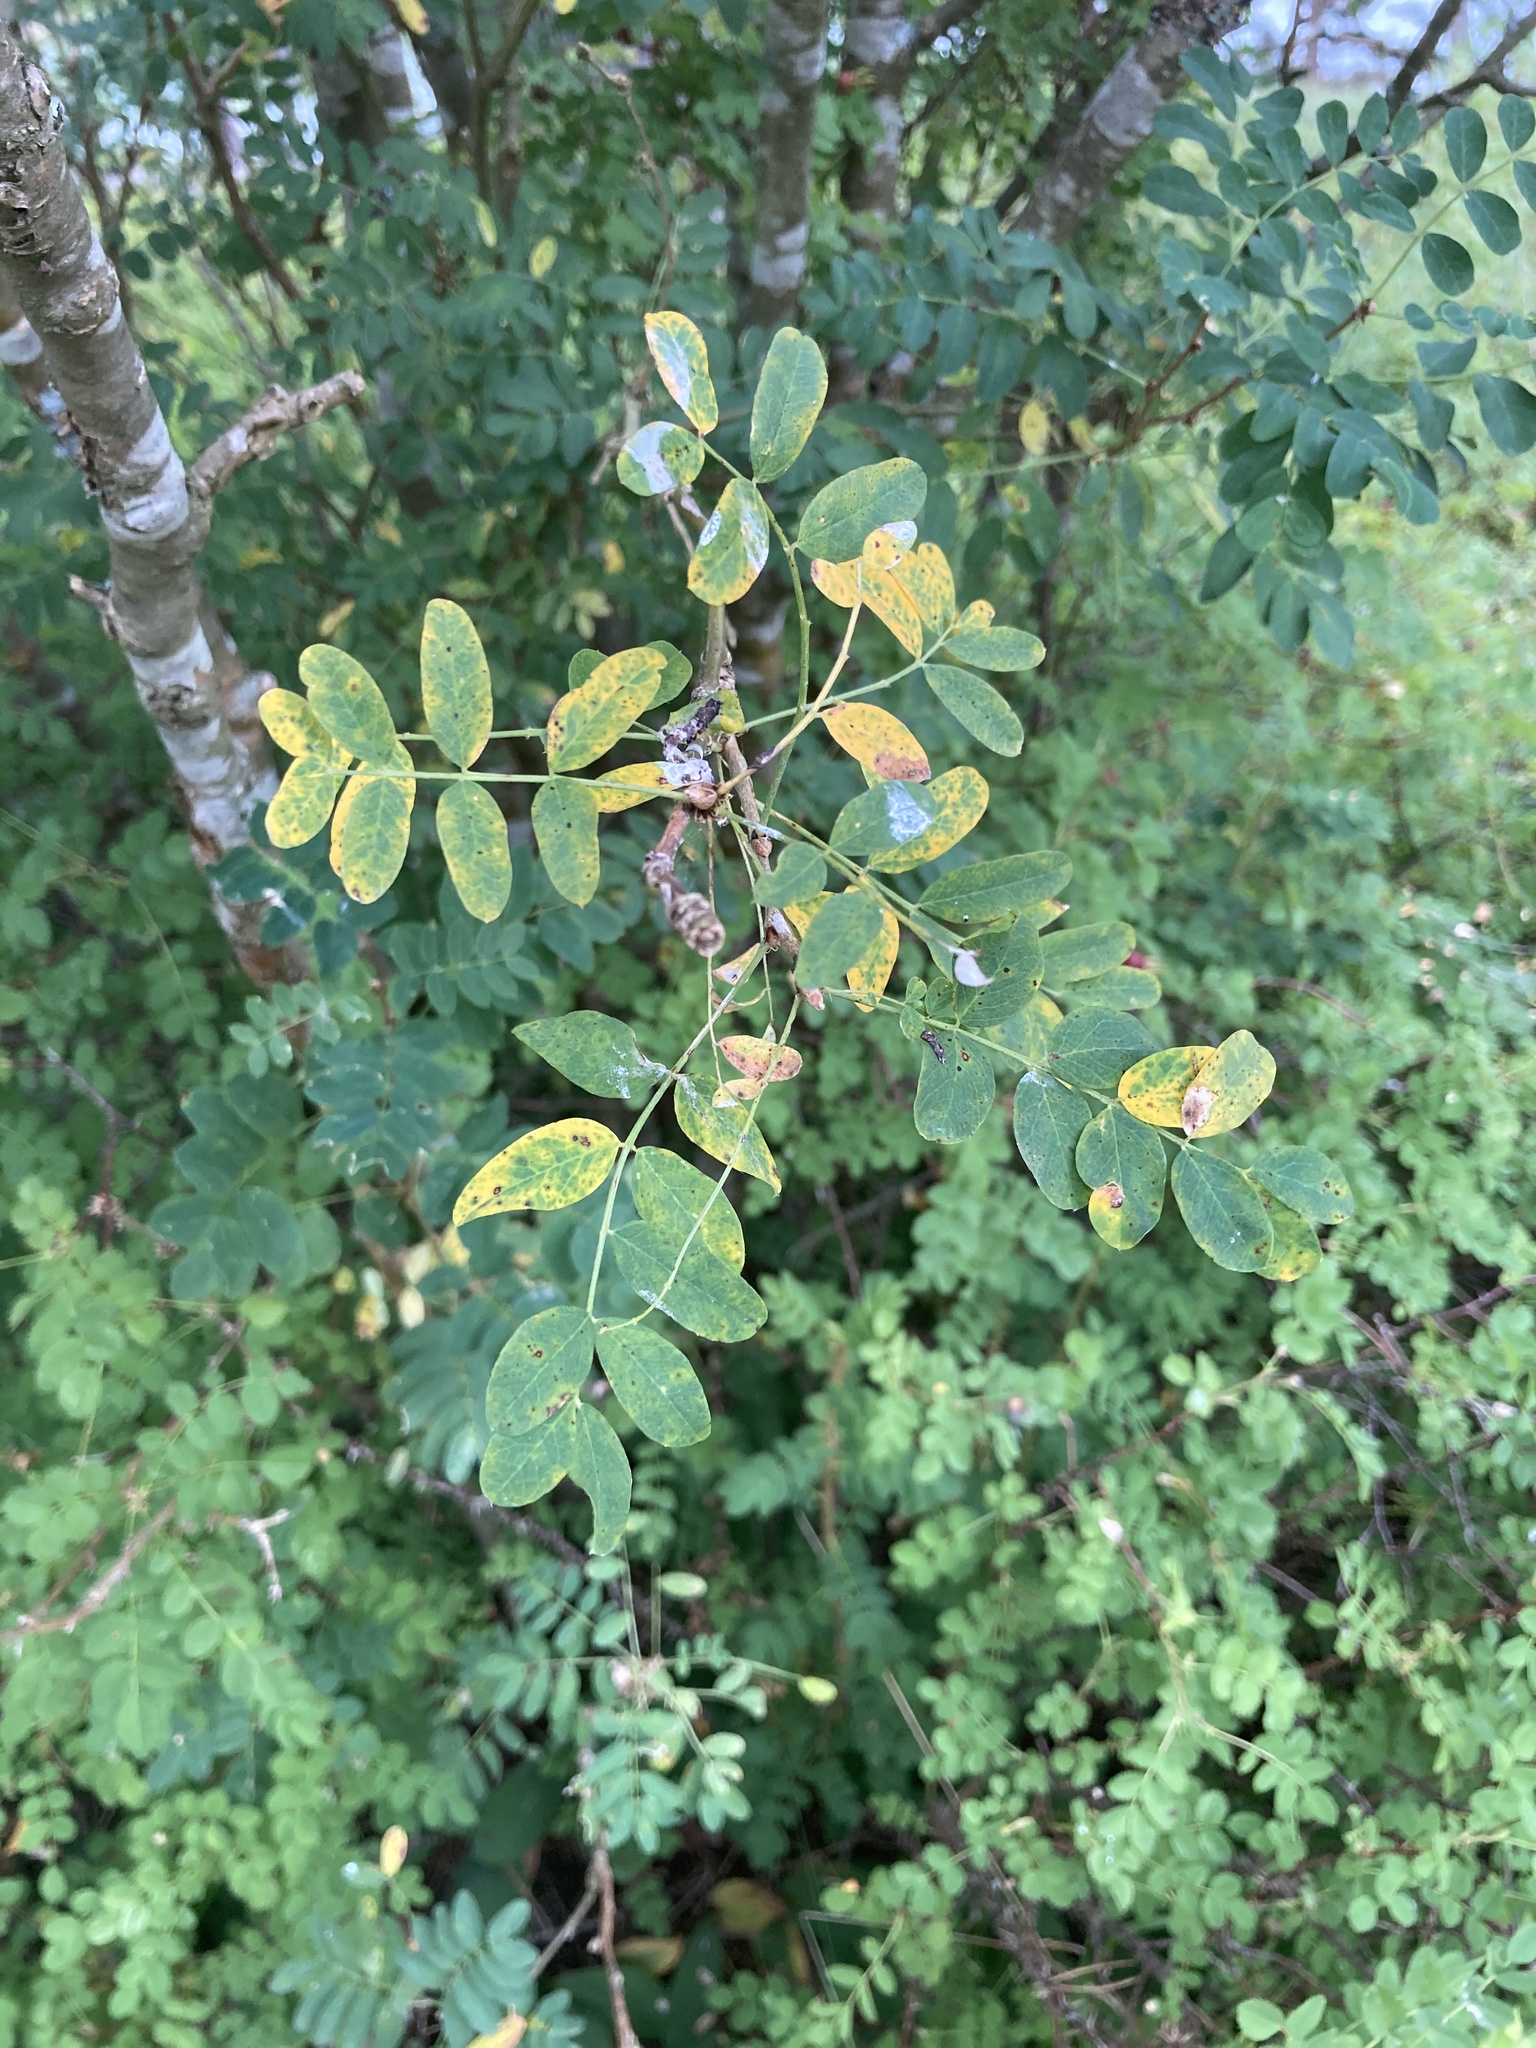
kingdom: Plantae
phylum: Tracheophyta
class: Magnoliopsida
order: Fabales
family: Fabaceae
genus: Caragana
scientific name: Caragana arborescens
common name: Siberian peashrub
